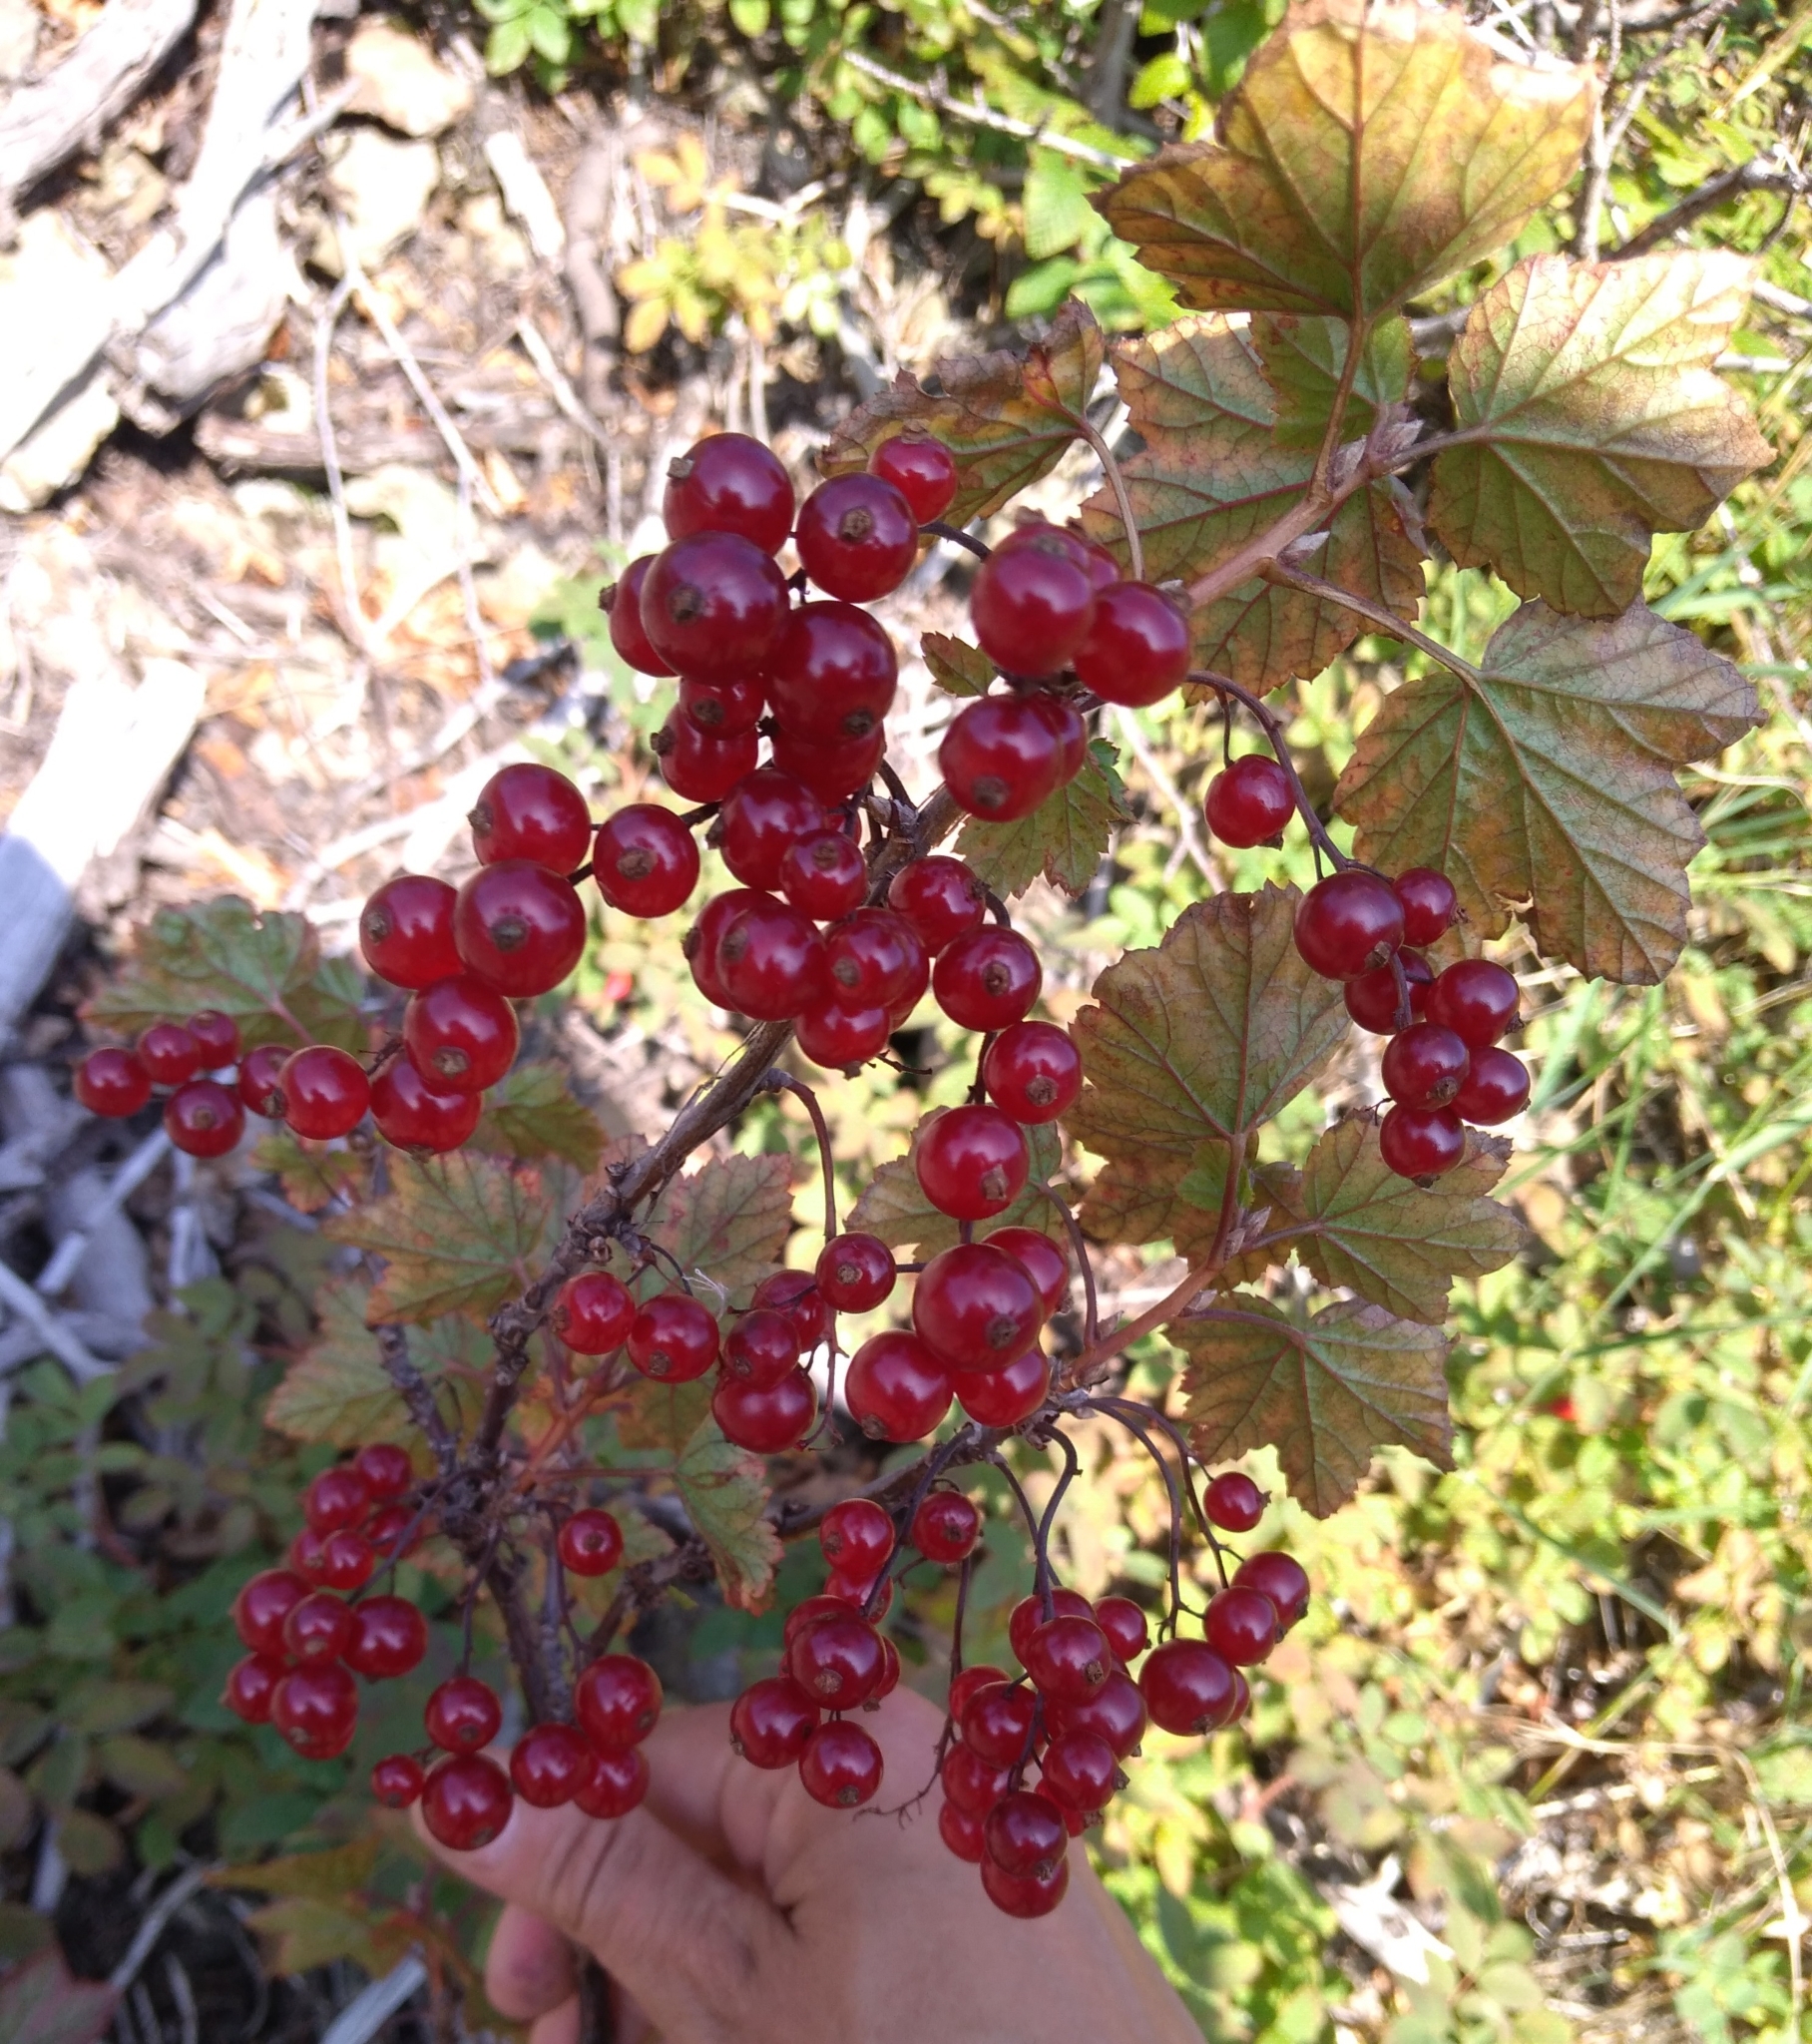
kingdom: Plantae
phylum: Tracheophyta
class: Magnoliopsida
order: Saxifragales
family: Grossulariaceae
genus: Ribes
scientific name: Ribes triste
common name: Swamp red currant
